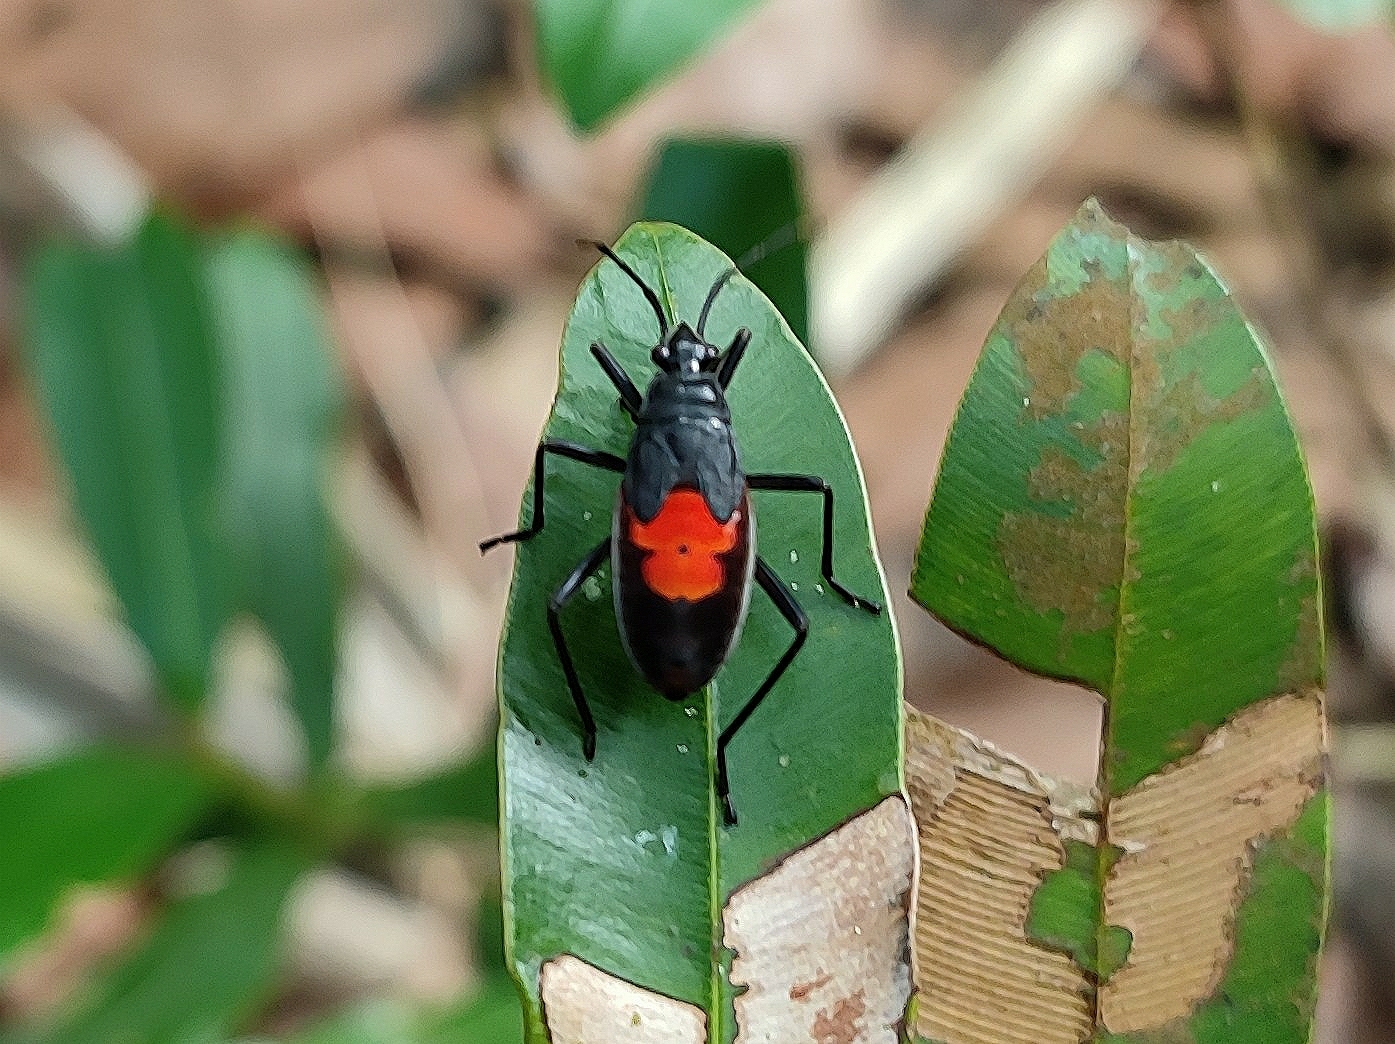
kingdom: Animalia
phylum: Arthropoda
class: Insecta
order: Hemiptera
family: Pyrrhocoridae
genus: Melamphaus
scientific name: Melamphaus
